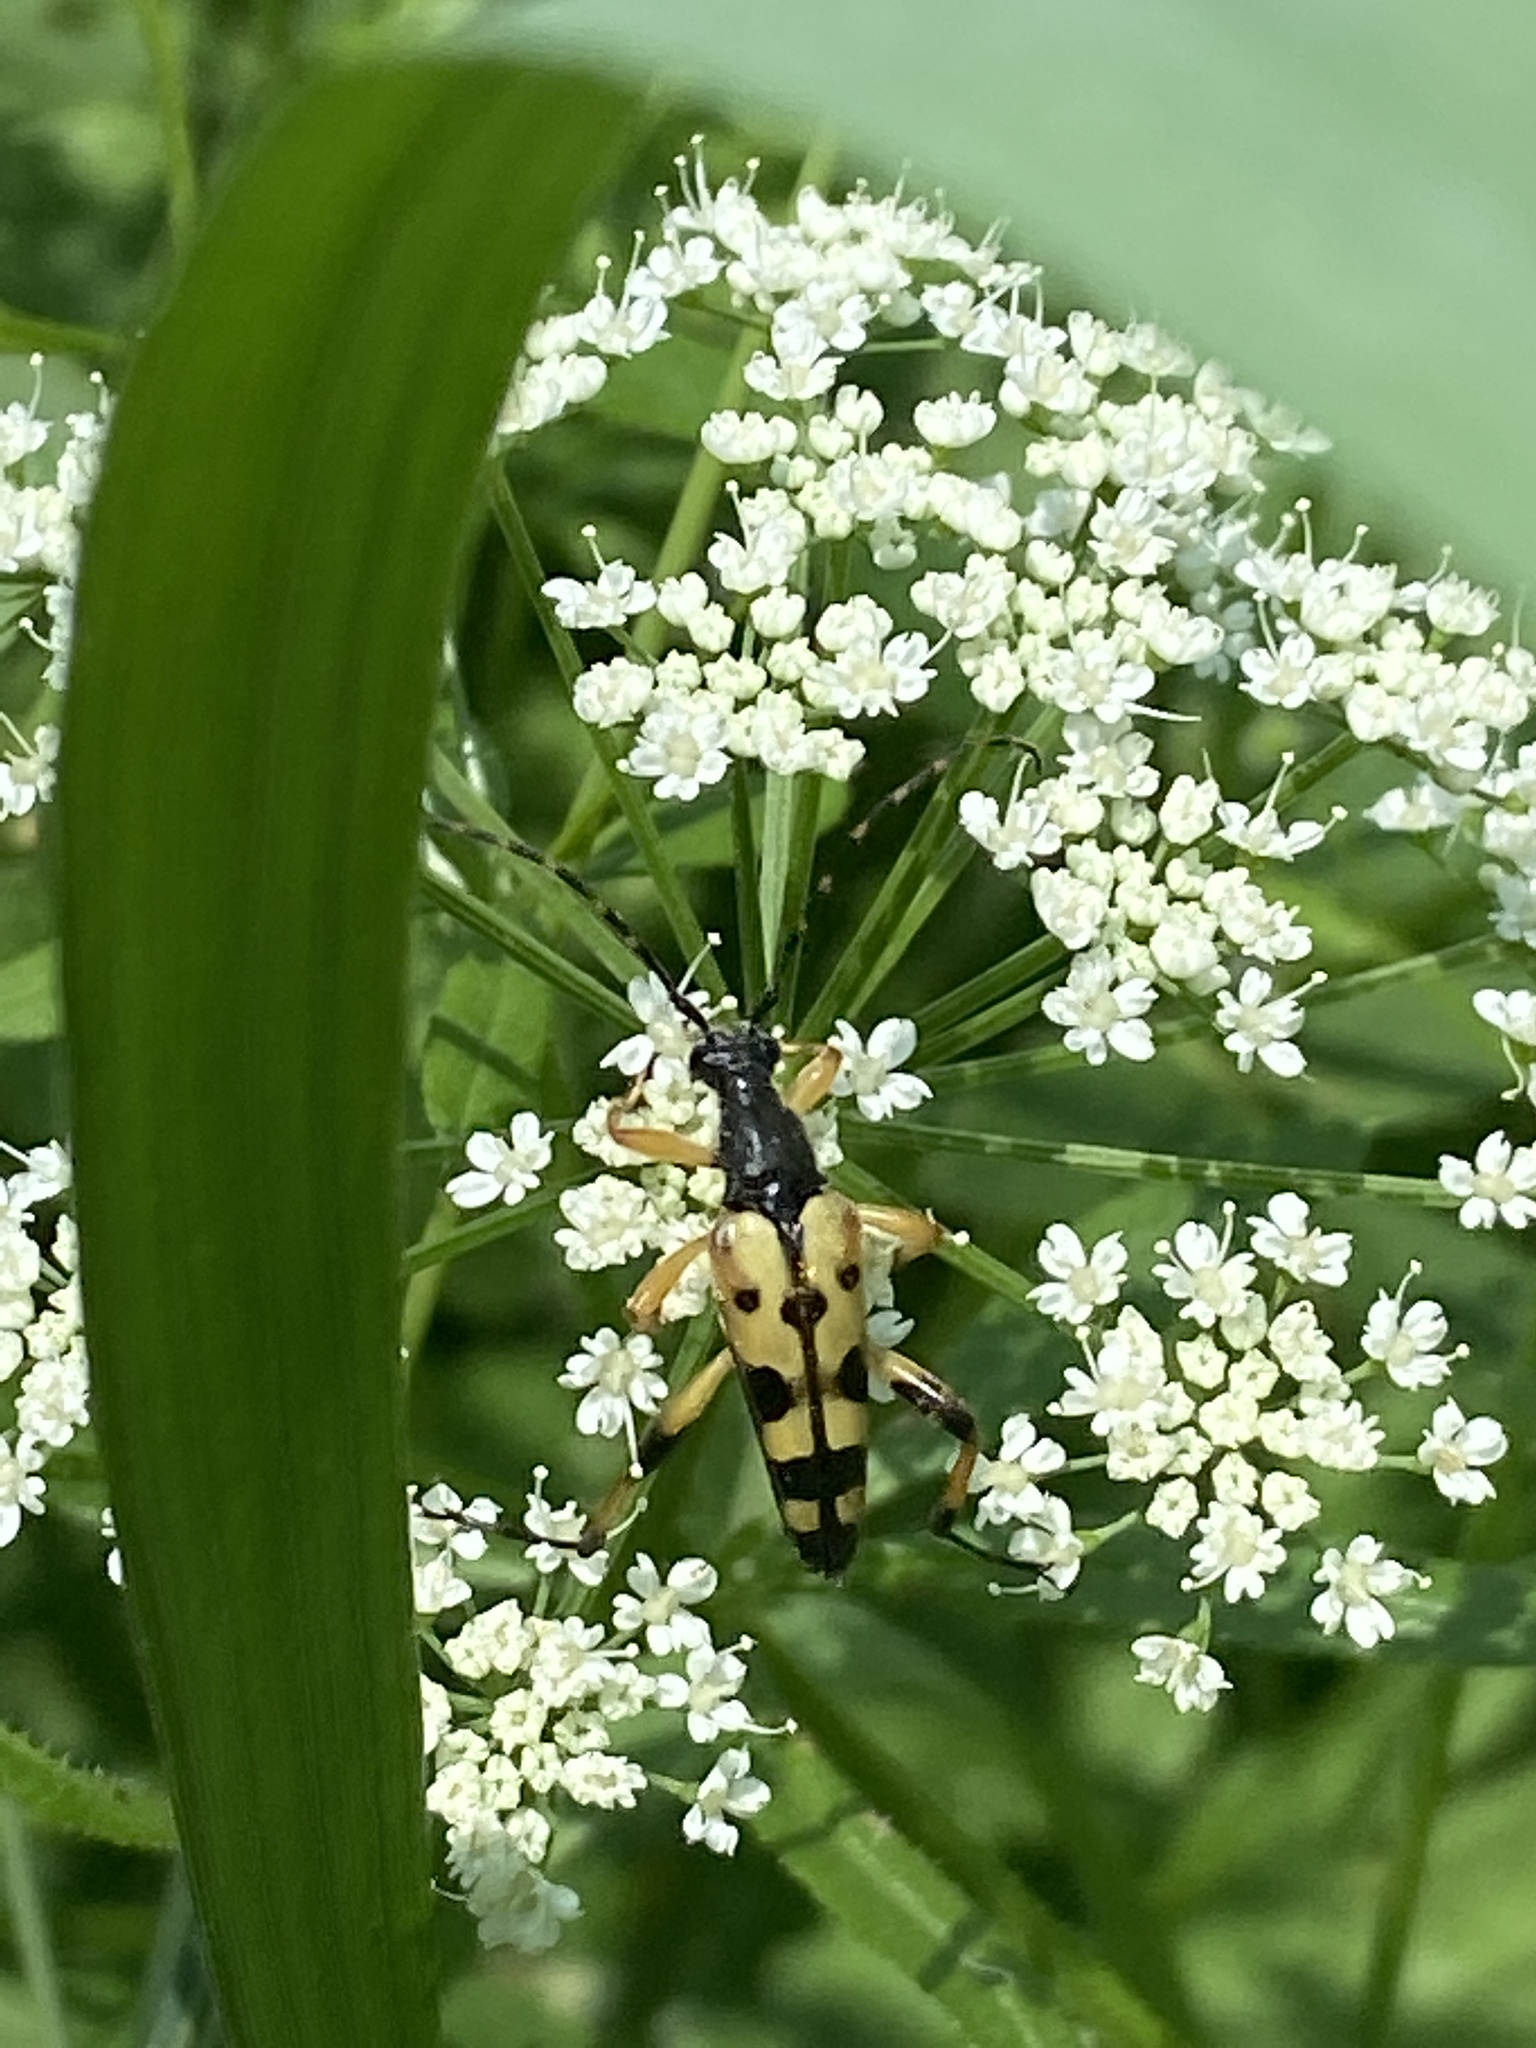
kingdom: Animalia
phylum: Arthropoda
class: Insecta
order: Coleoptera
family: Cerambycidae
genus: Rutpela
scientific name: Rutpela maculata
